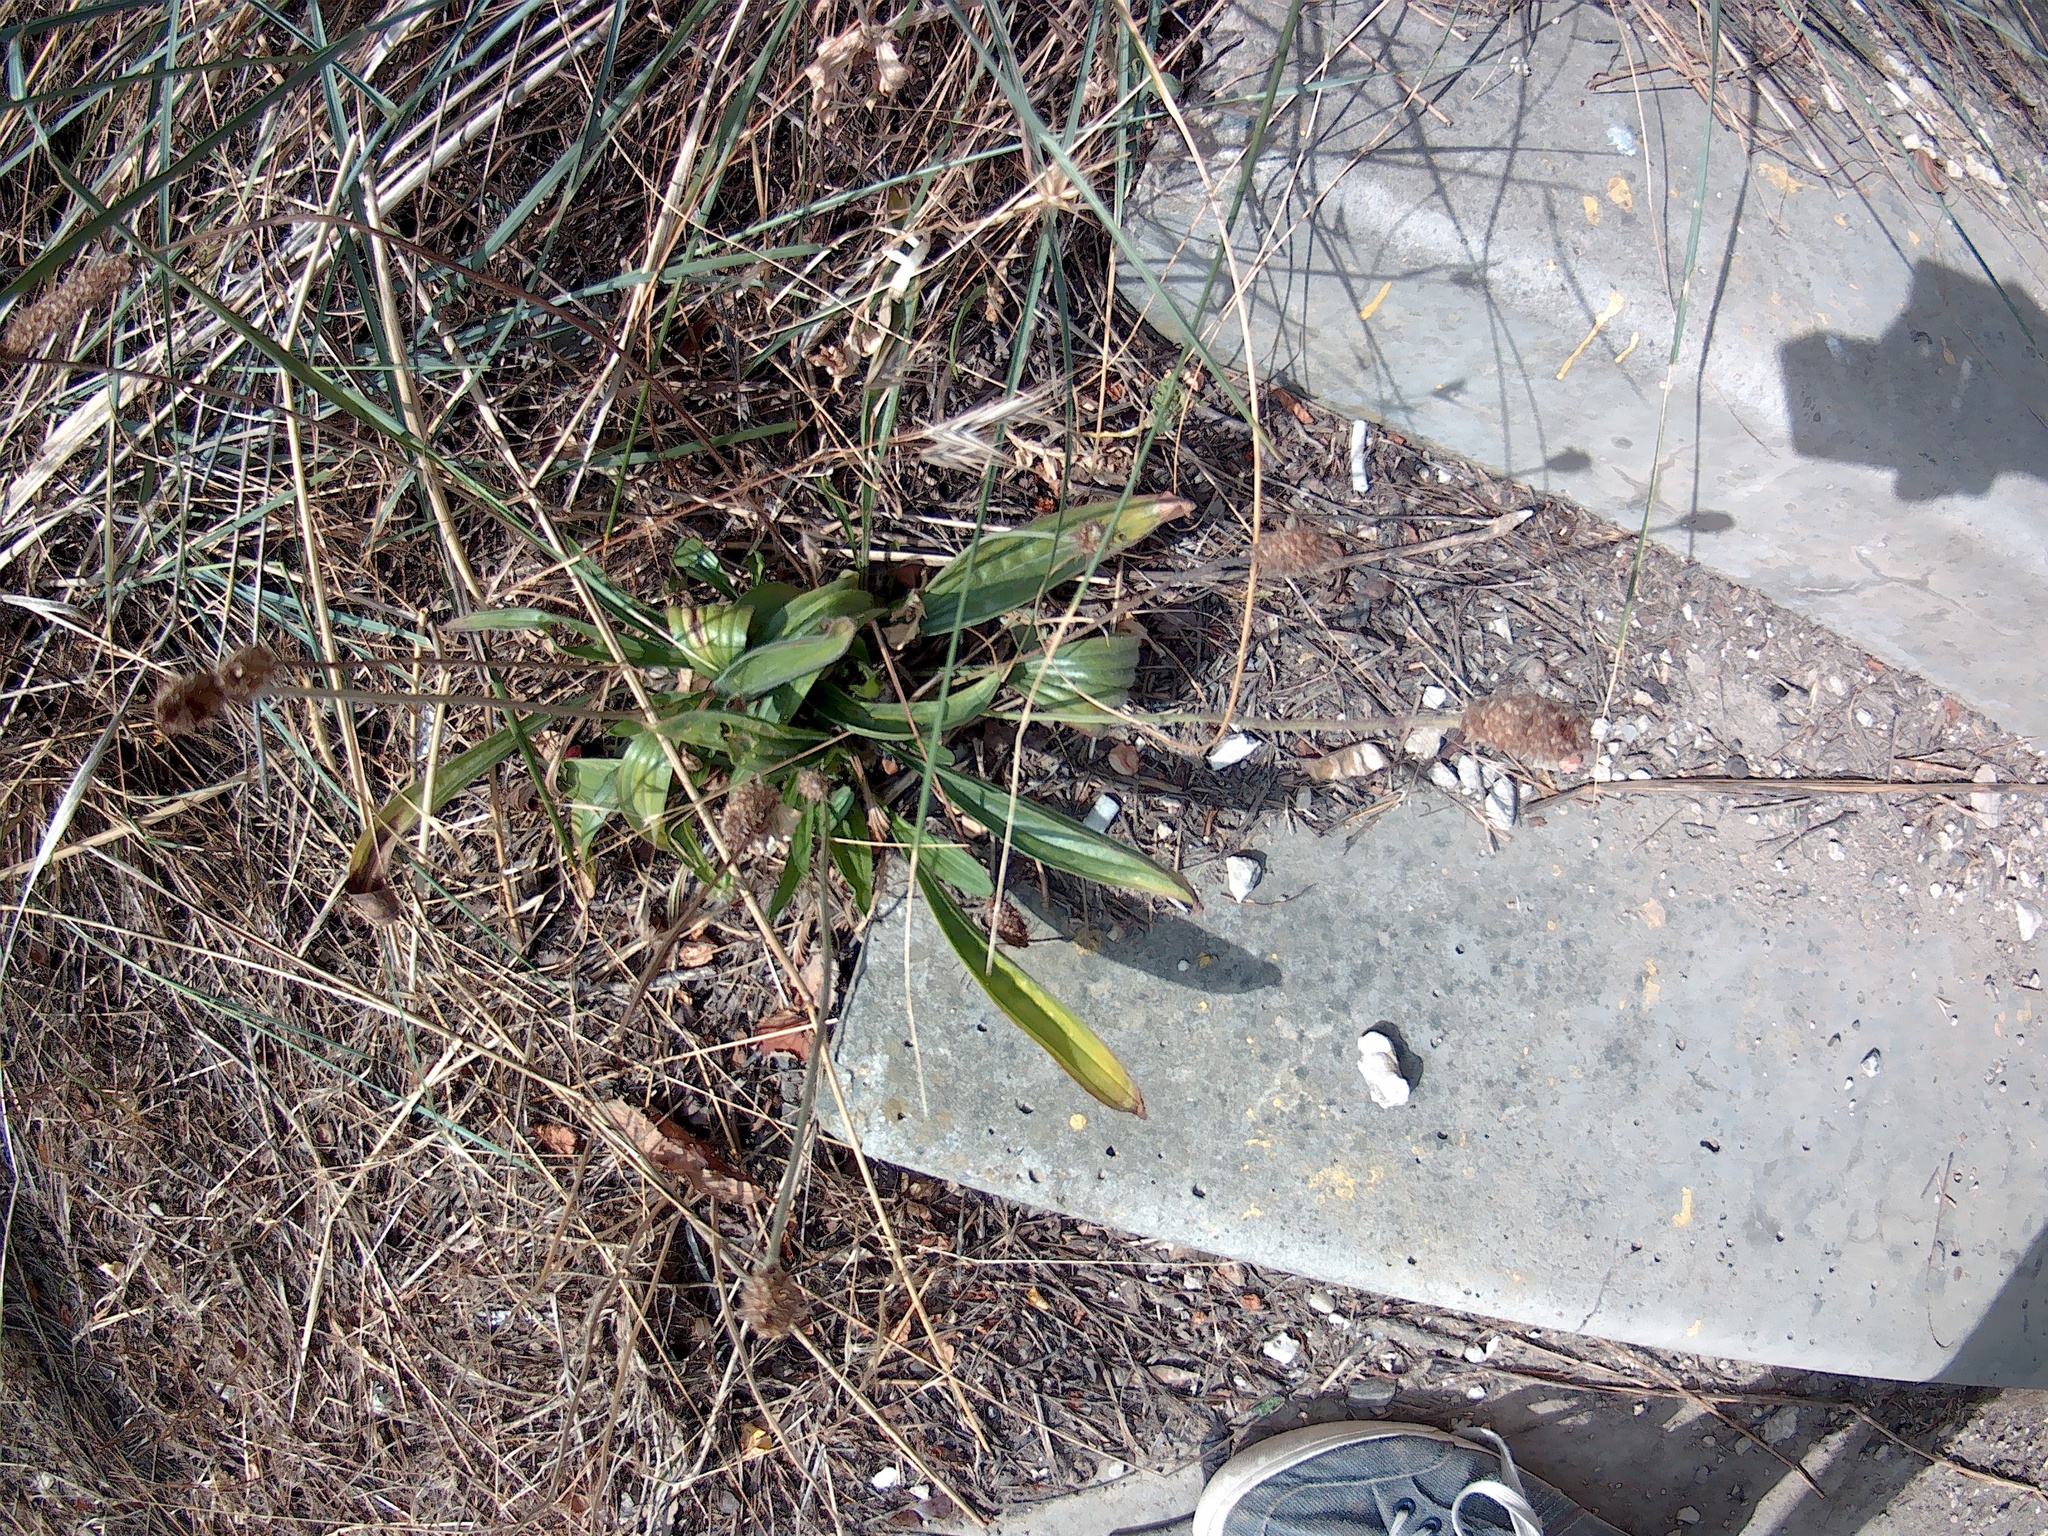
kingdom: Plantae
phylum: Tracheophyta
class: Magnoliopsida
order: Lamiales
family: Plantaginaceae
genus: Plantago
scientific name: Plantago lanceolata
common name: Ribwort plantain
